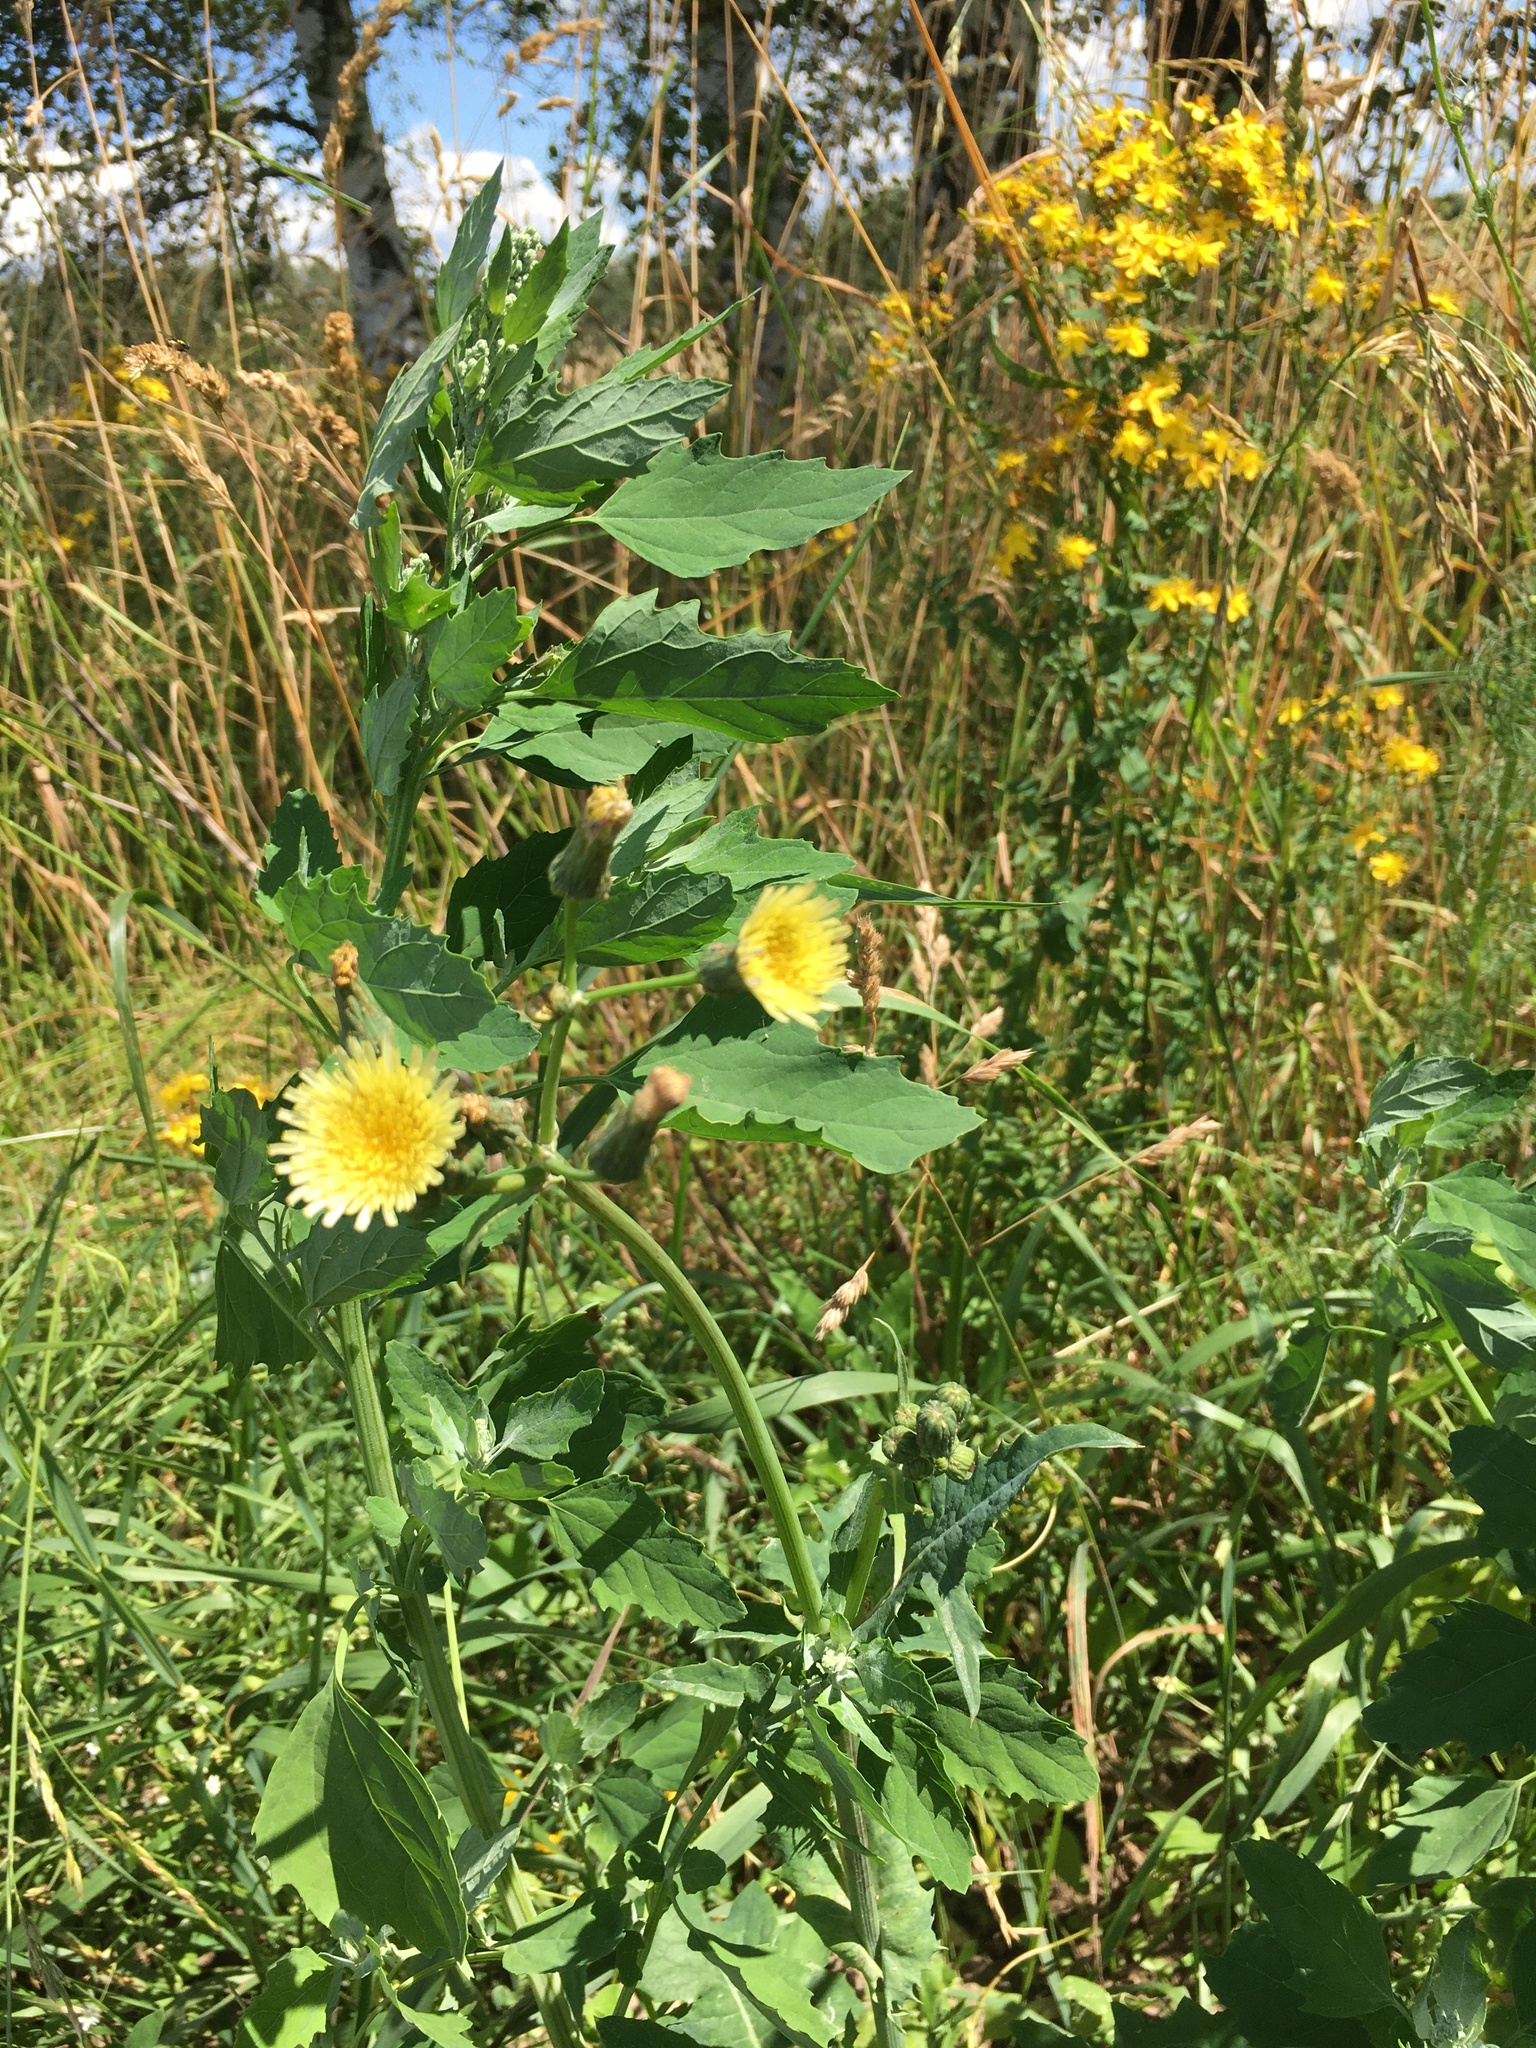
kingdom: Plantae
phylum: Tracheophyta
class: Magnoliopsida
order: Asterales
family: Asteraceae
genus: Sonchus
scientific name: Sonchus oleraceus
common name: Common sowthistle
